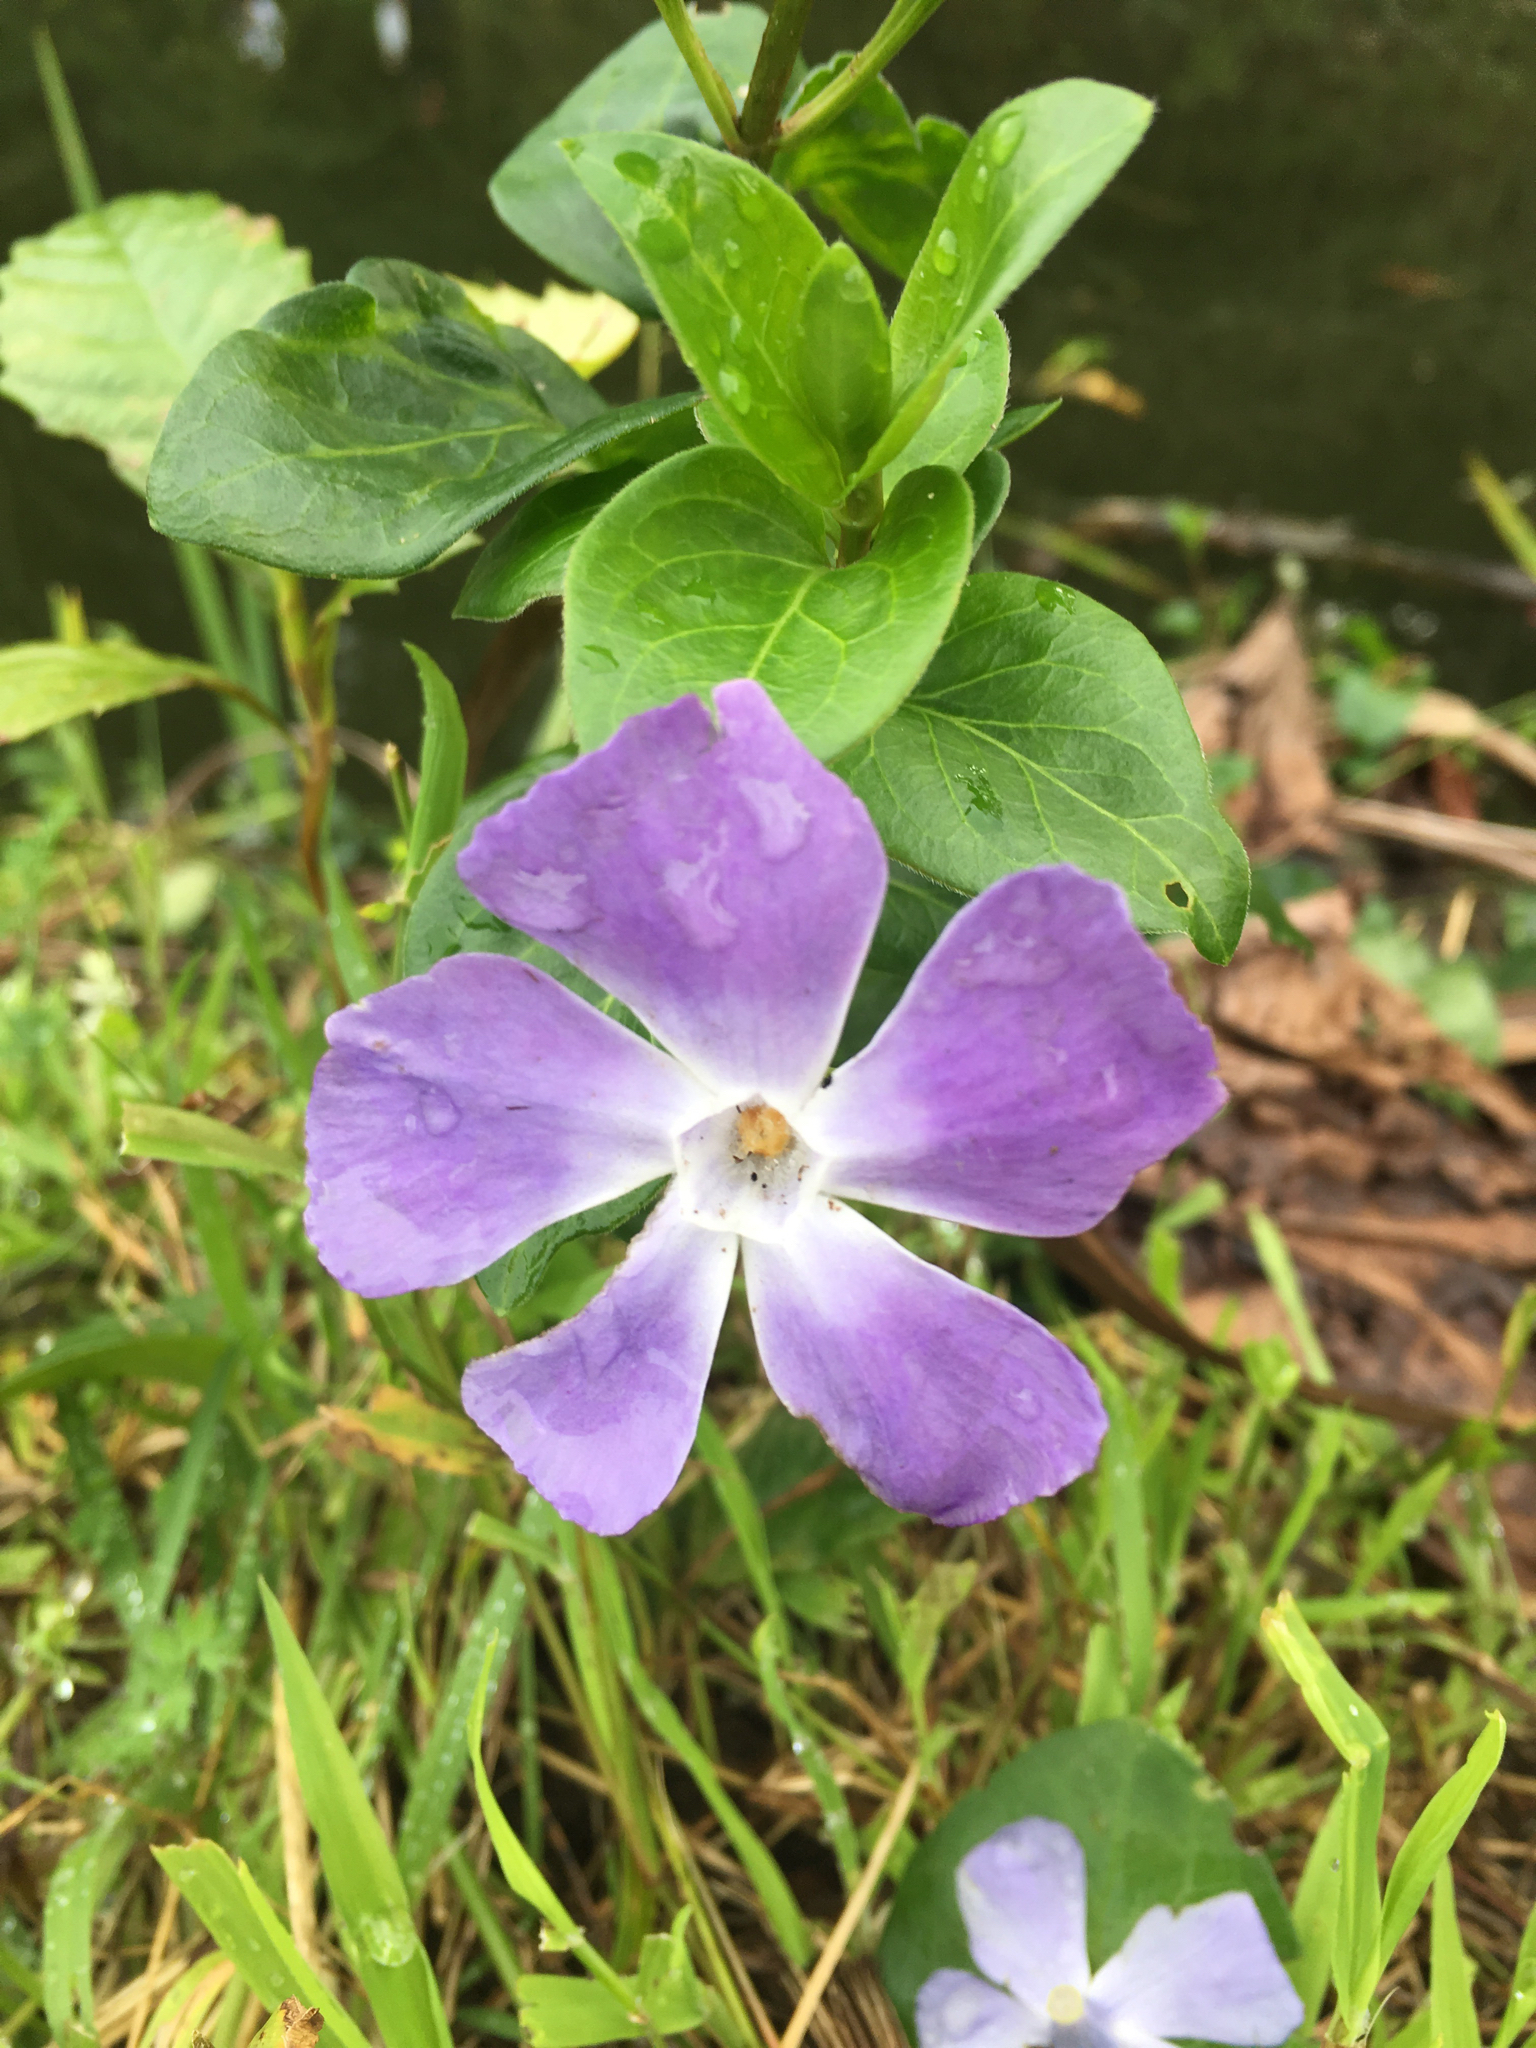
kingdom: Plantae
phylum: Tracheophyta
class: Magnoliopsida
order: Gentianales
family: Apocynaceae
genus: Vinca
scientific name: Vinca major
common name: Greater periwinkle
